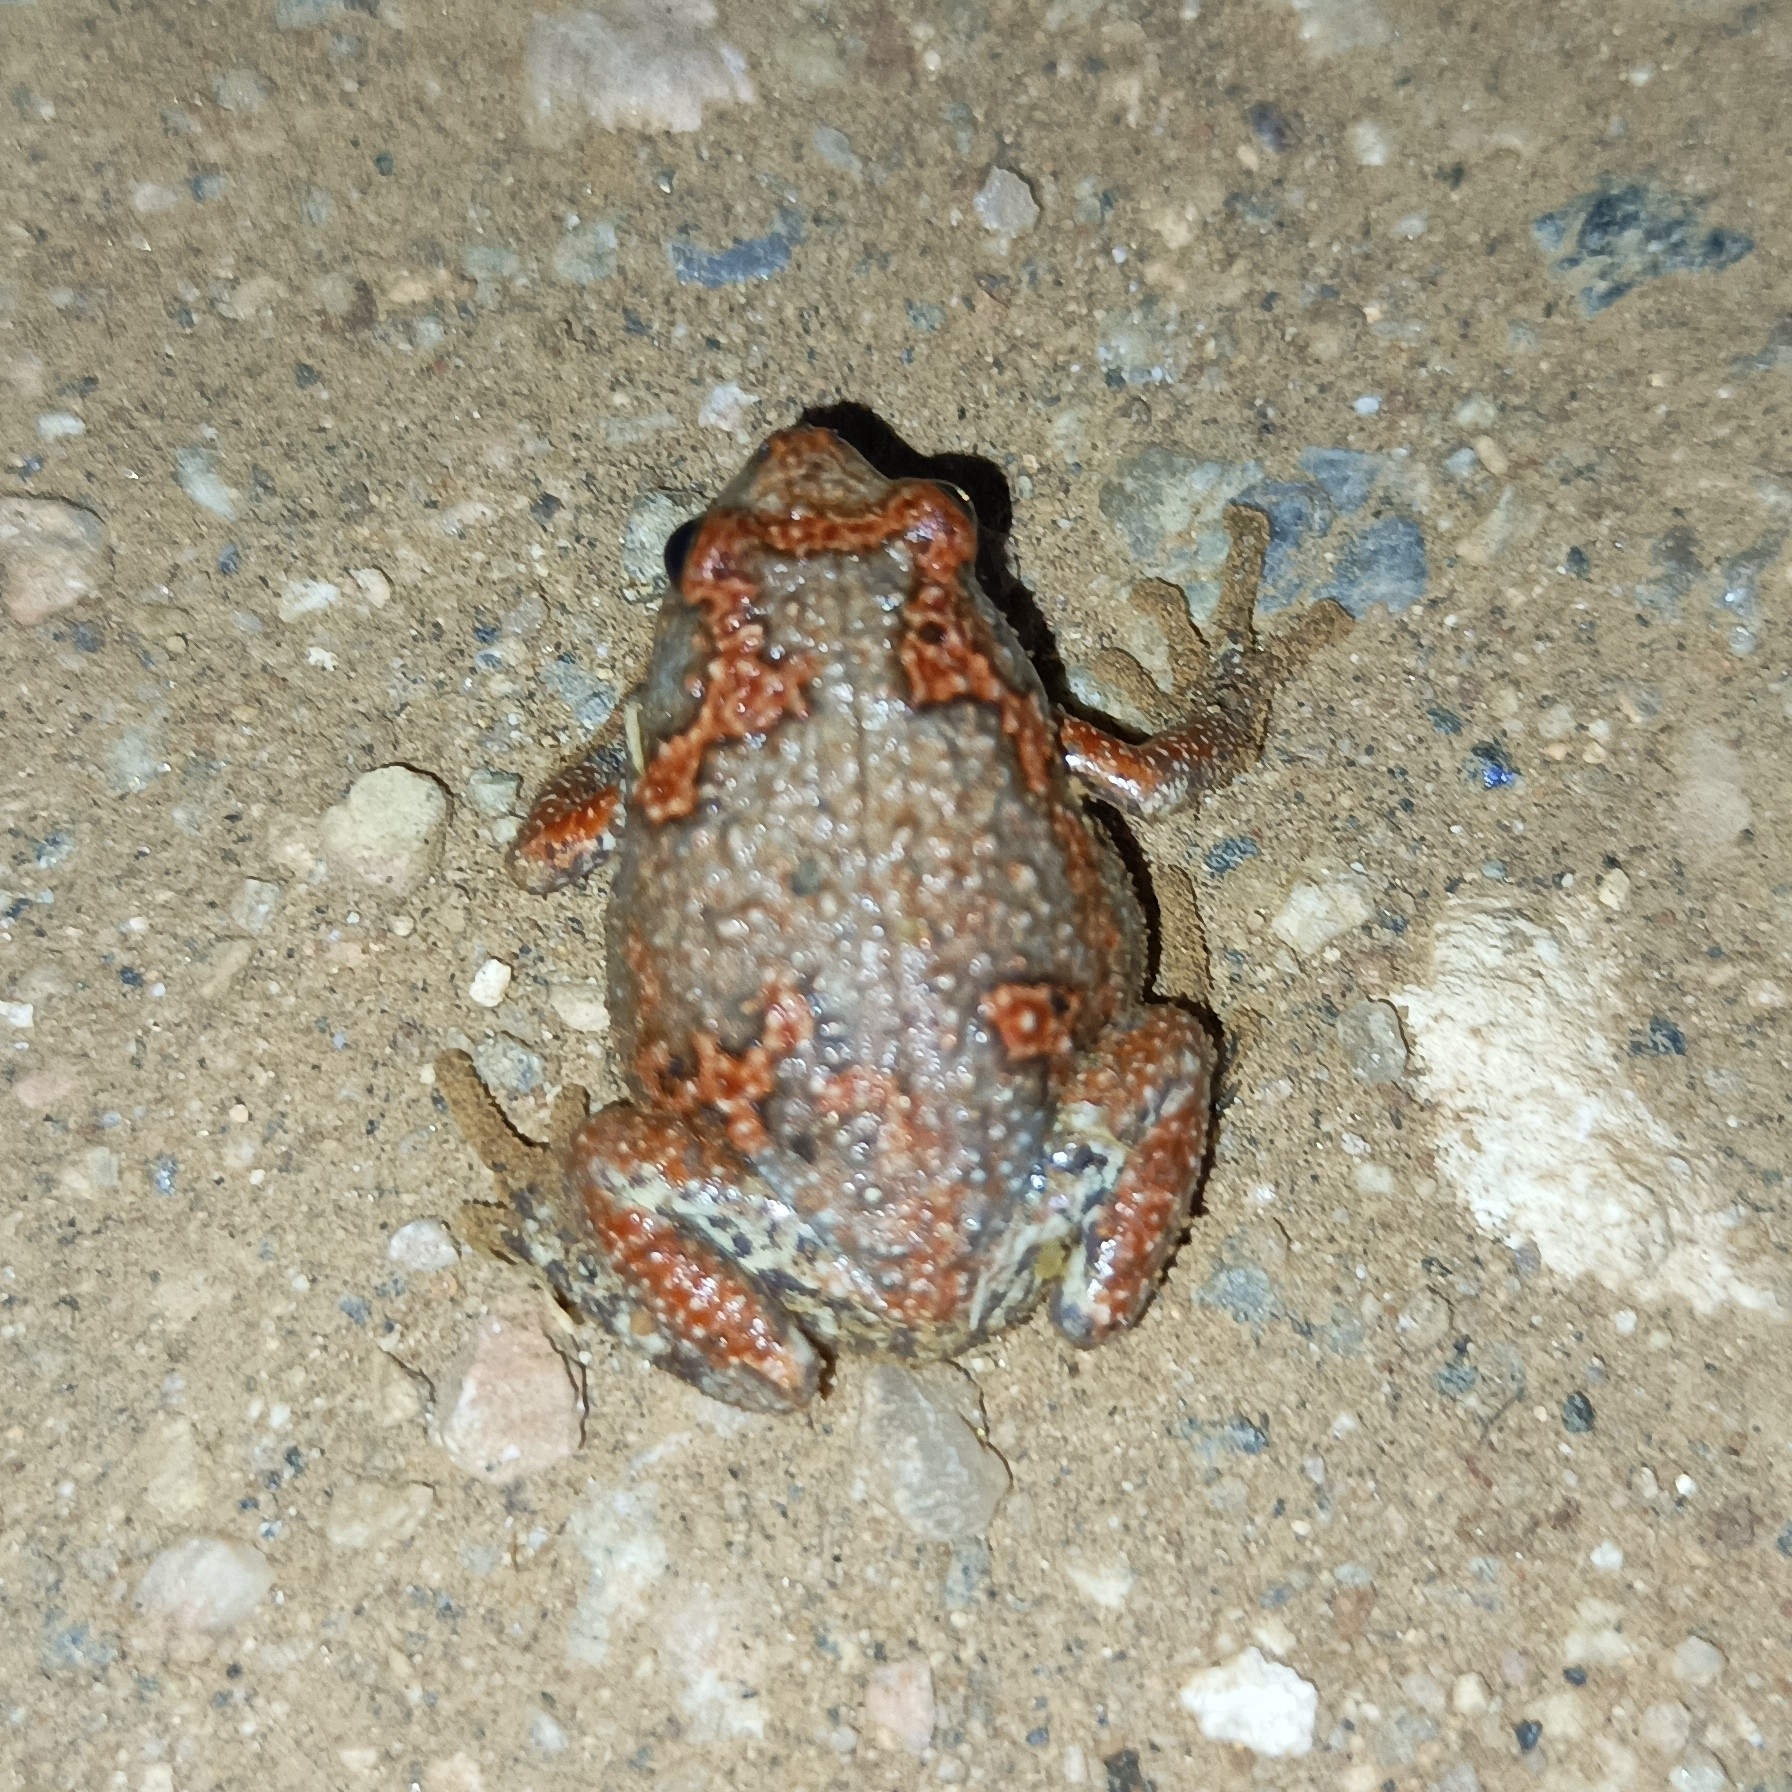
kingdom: Animalia
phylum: Chordata
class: Amphibia
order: Anura
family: Microhylidae
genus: Uperodon
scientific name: Uperodon taprobanicus
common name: Ceylon kaloula
